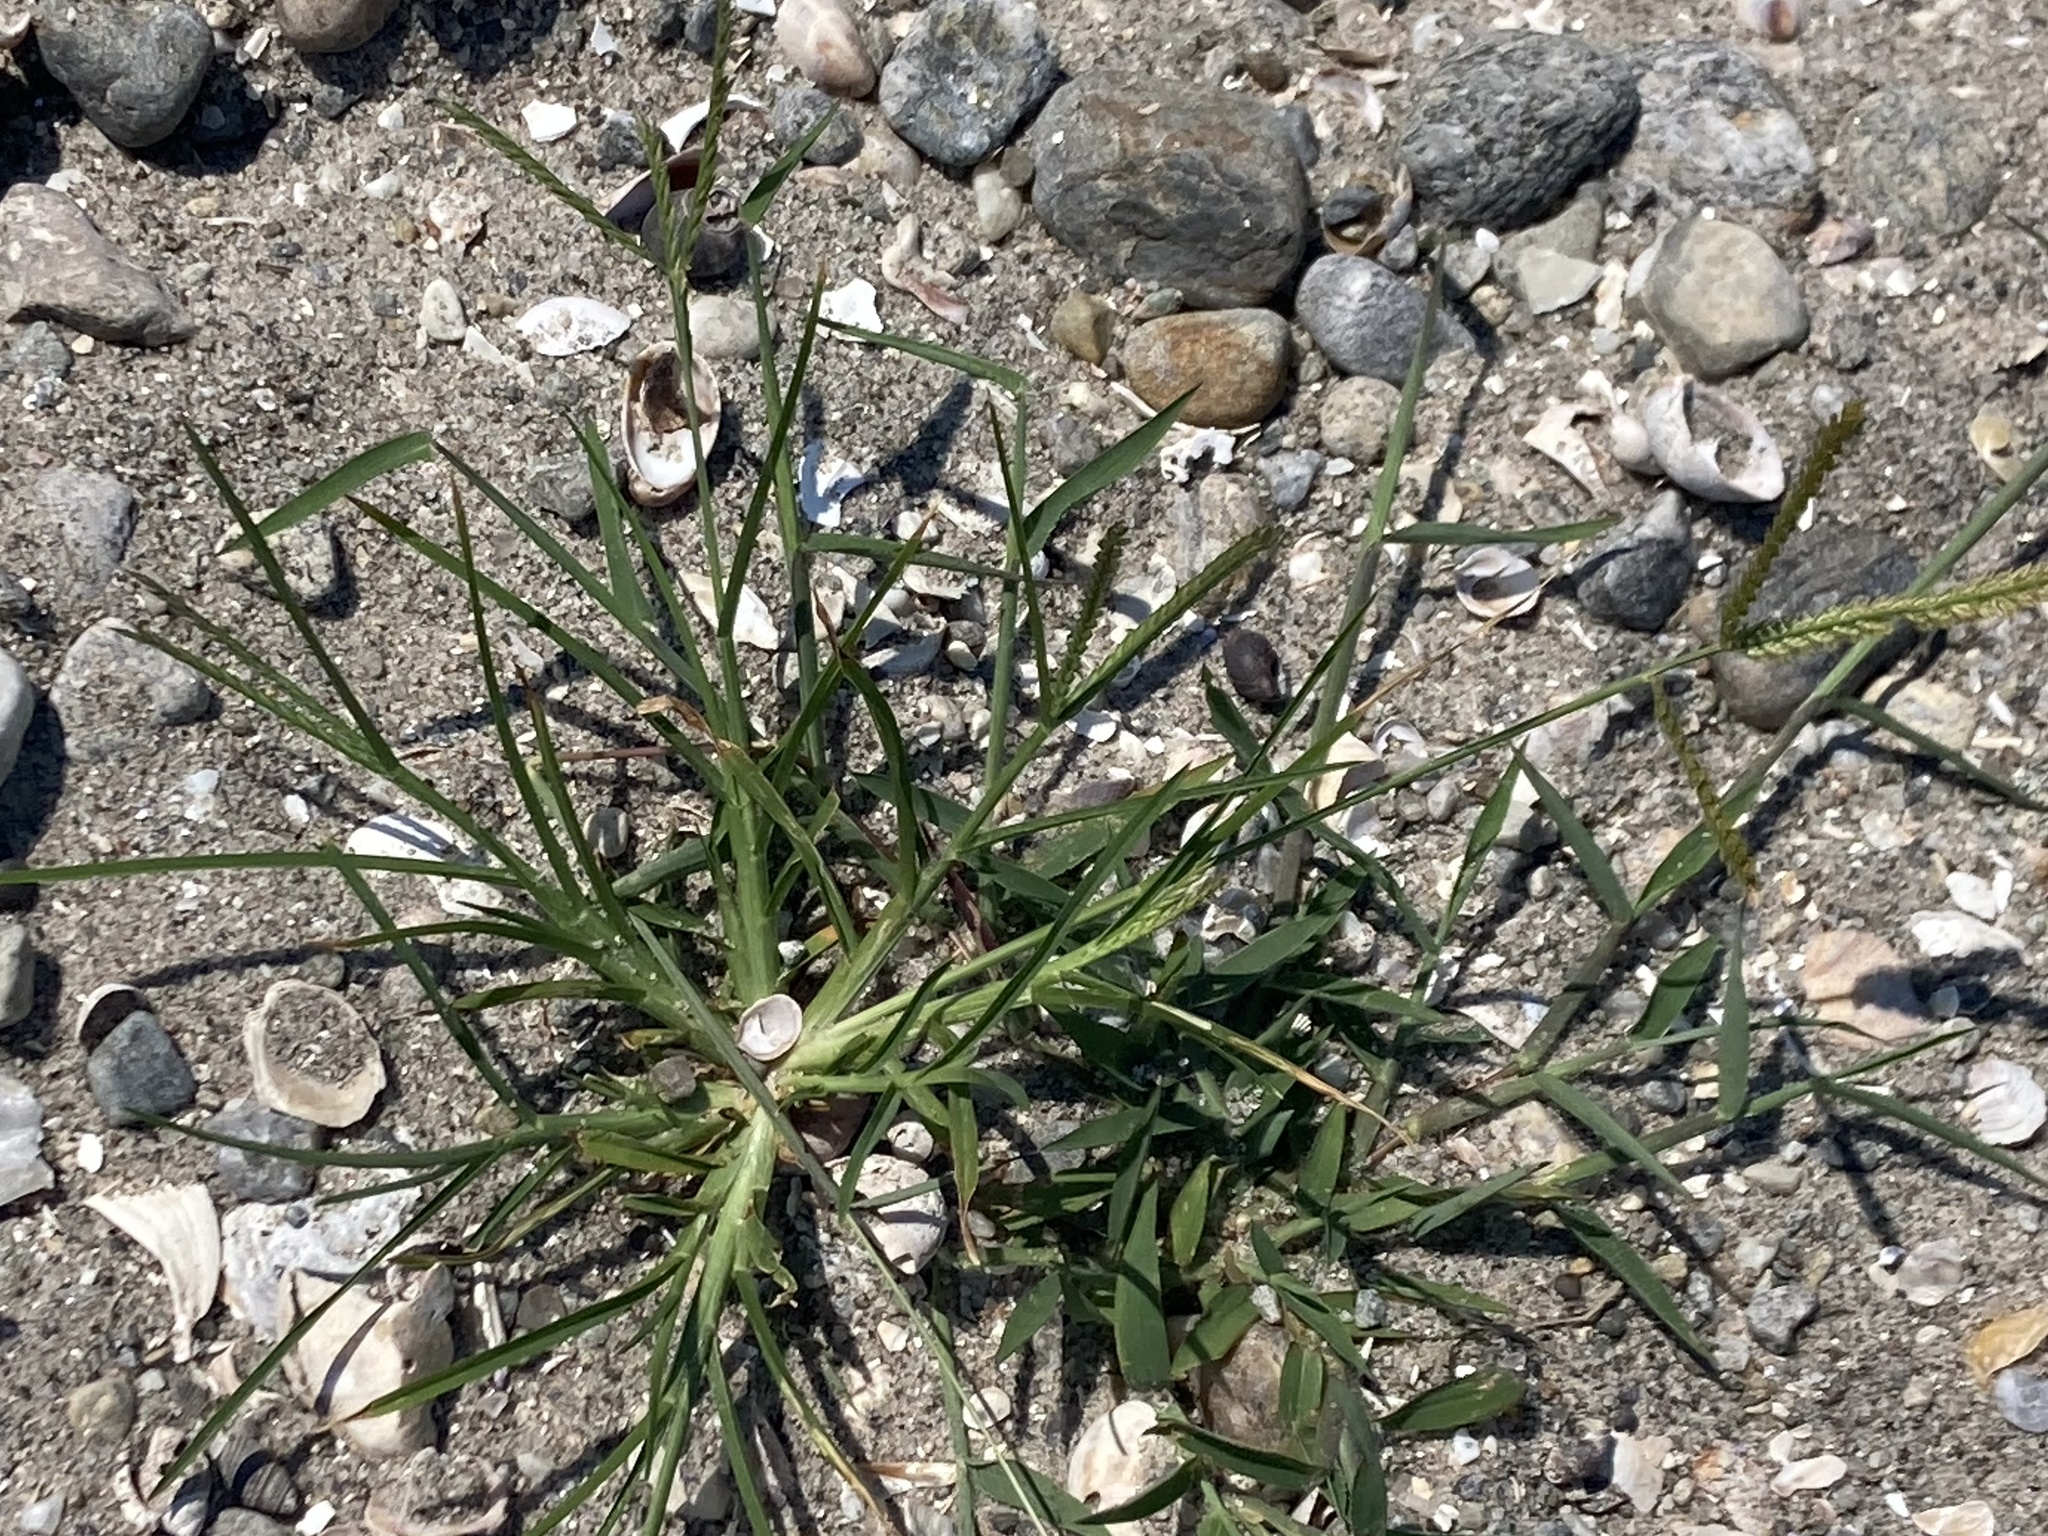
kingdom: Plantae
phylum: Tracheophyta
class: Liliopsida
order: Poales
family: Poaceae
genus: Eleusine
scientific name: Eleusine indica
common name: Yard-grass
